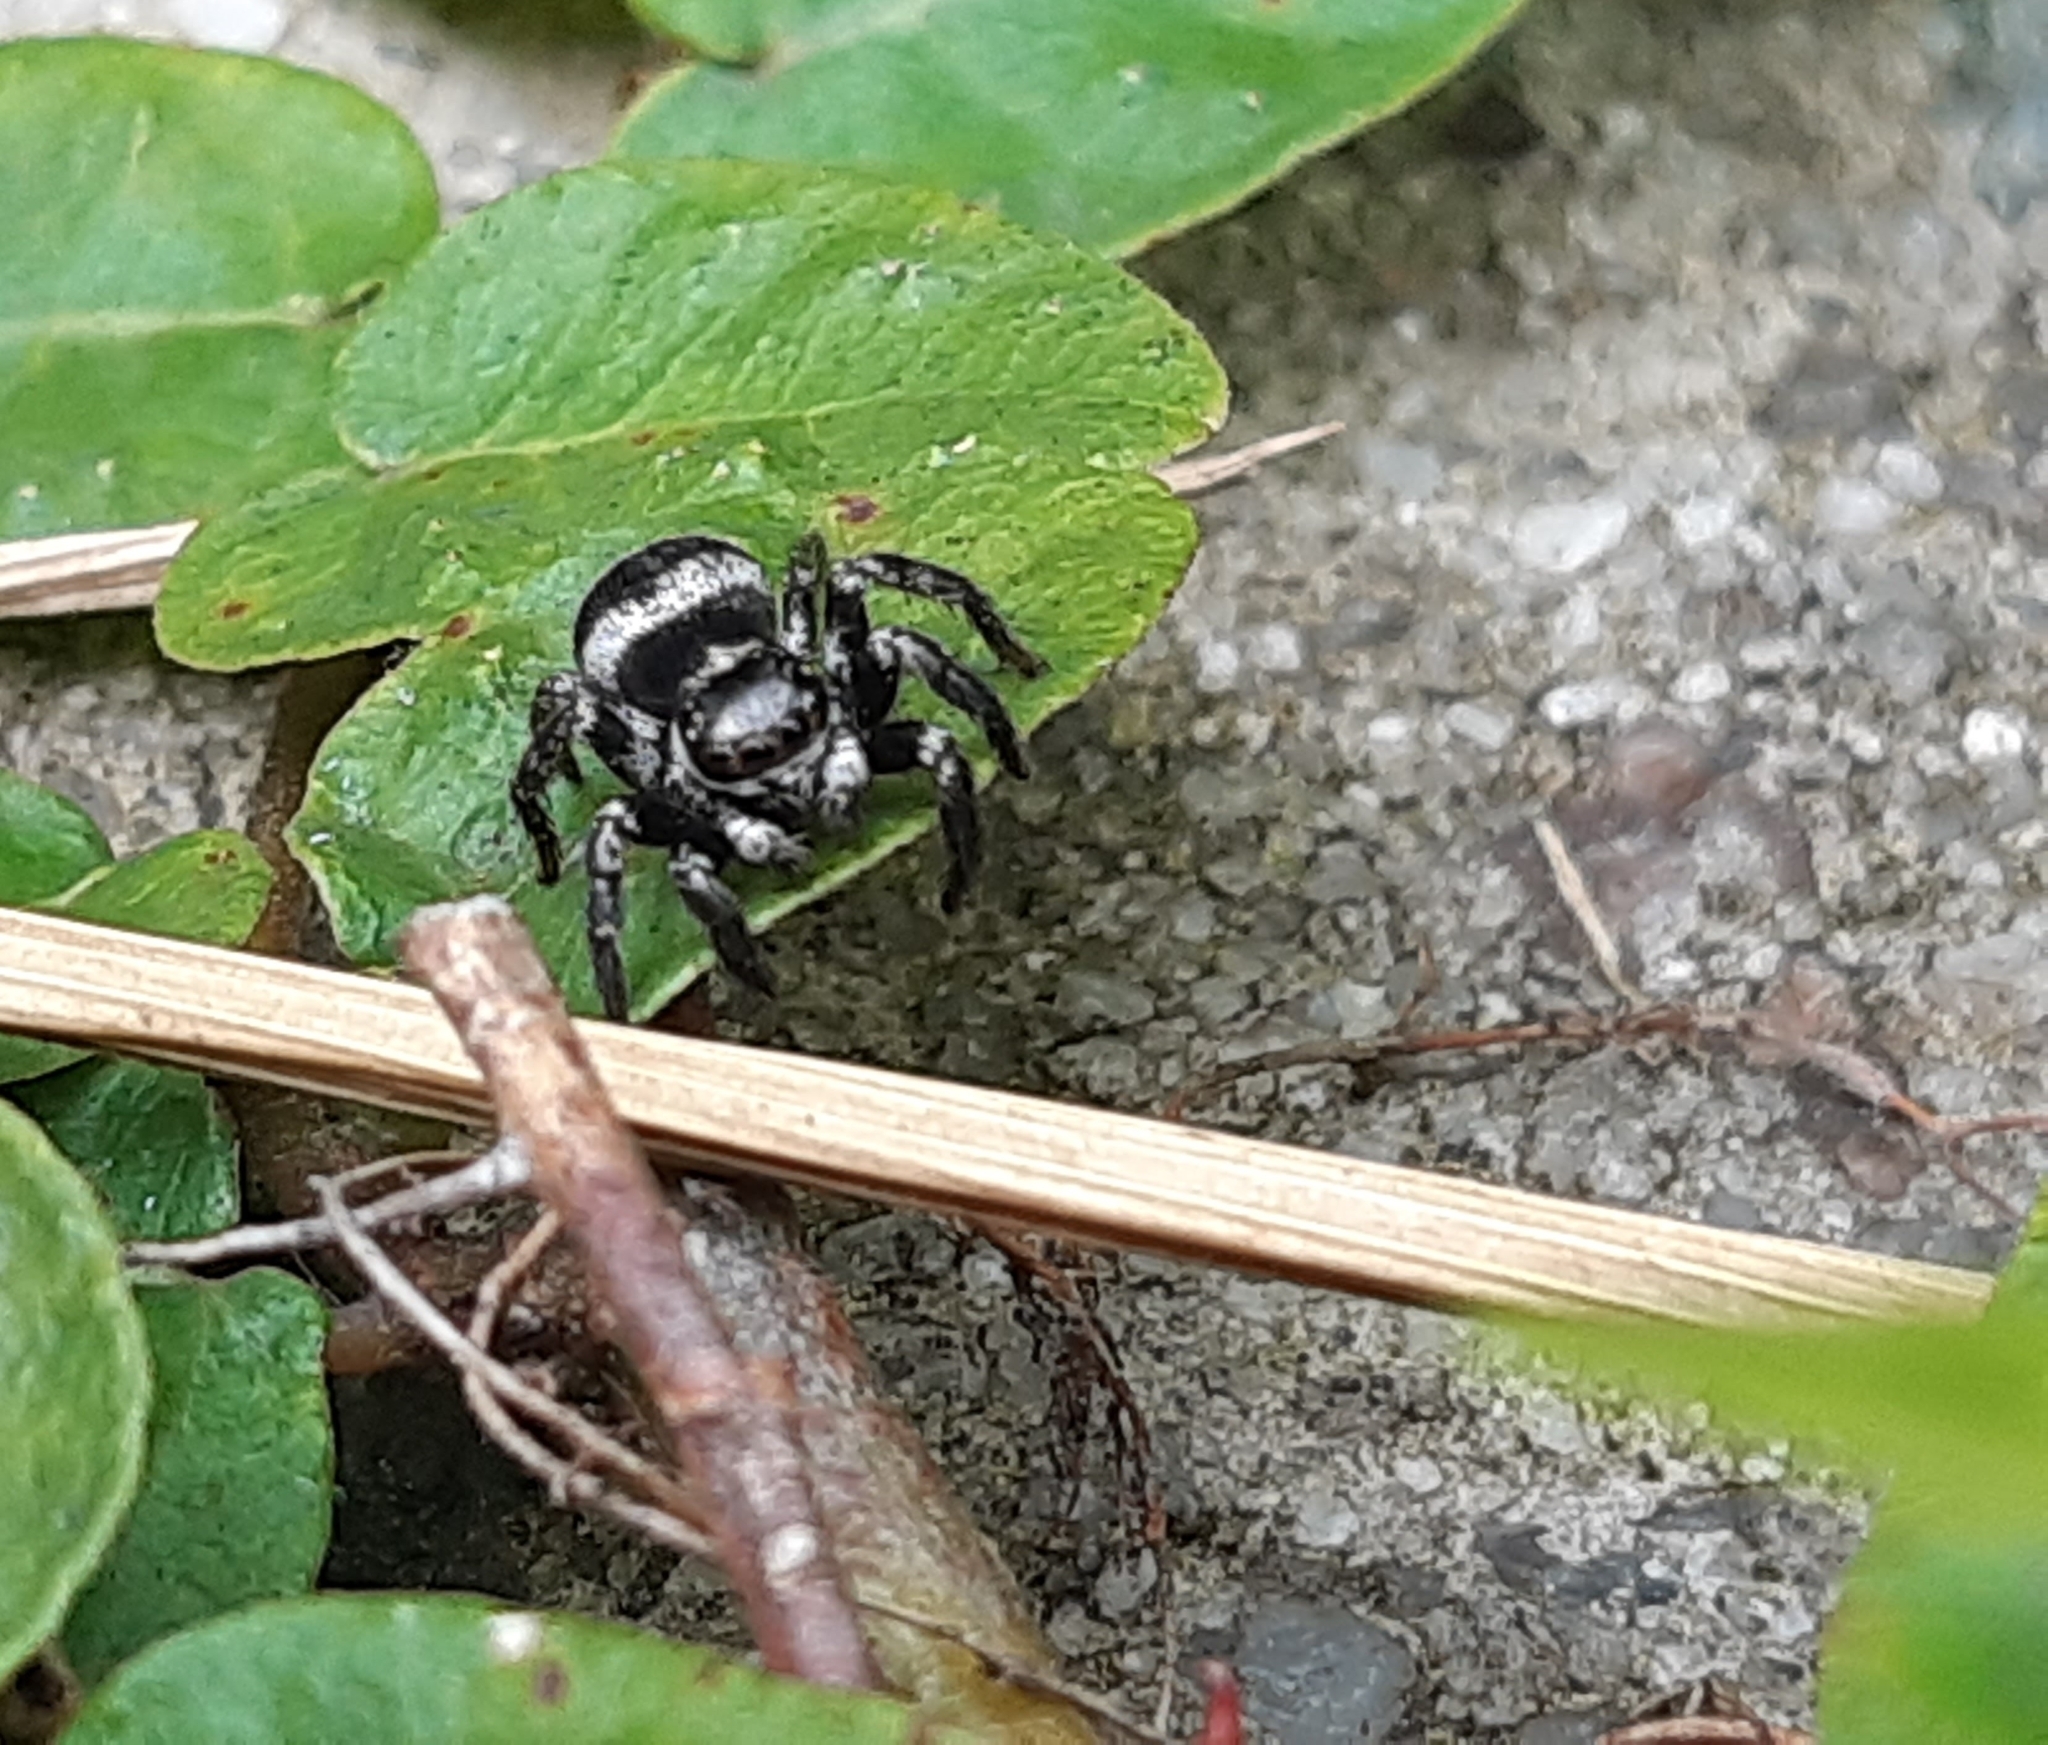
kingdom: Animalia
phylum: Arthropoda
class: Arachnida
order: Araneae
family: Salticidae
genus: Corythalia
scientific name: Corythalia argentinensis
